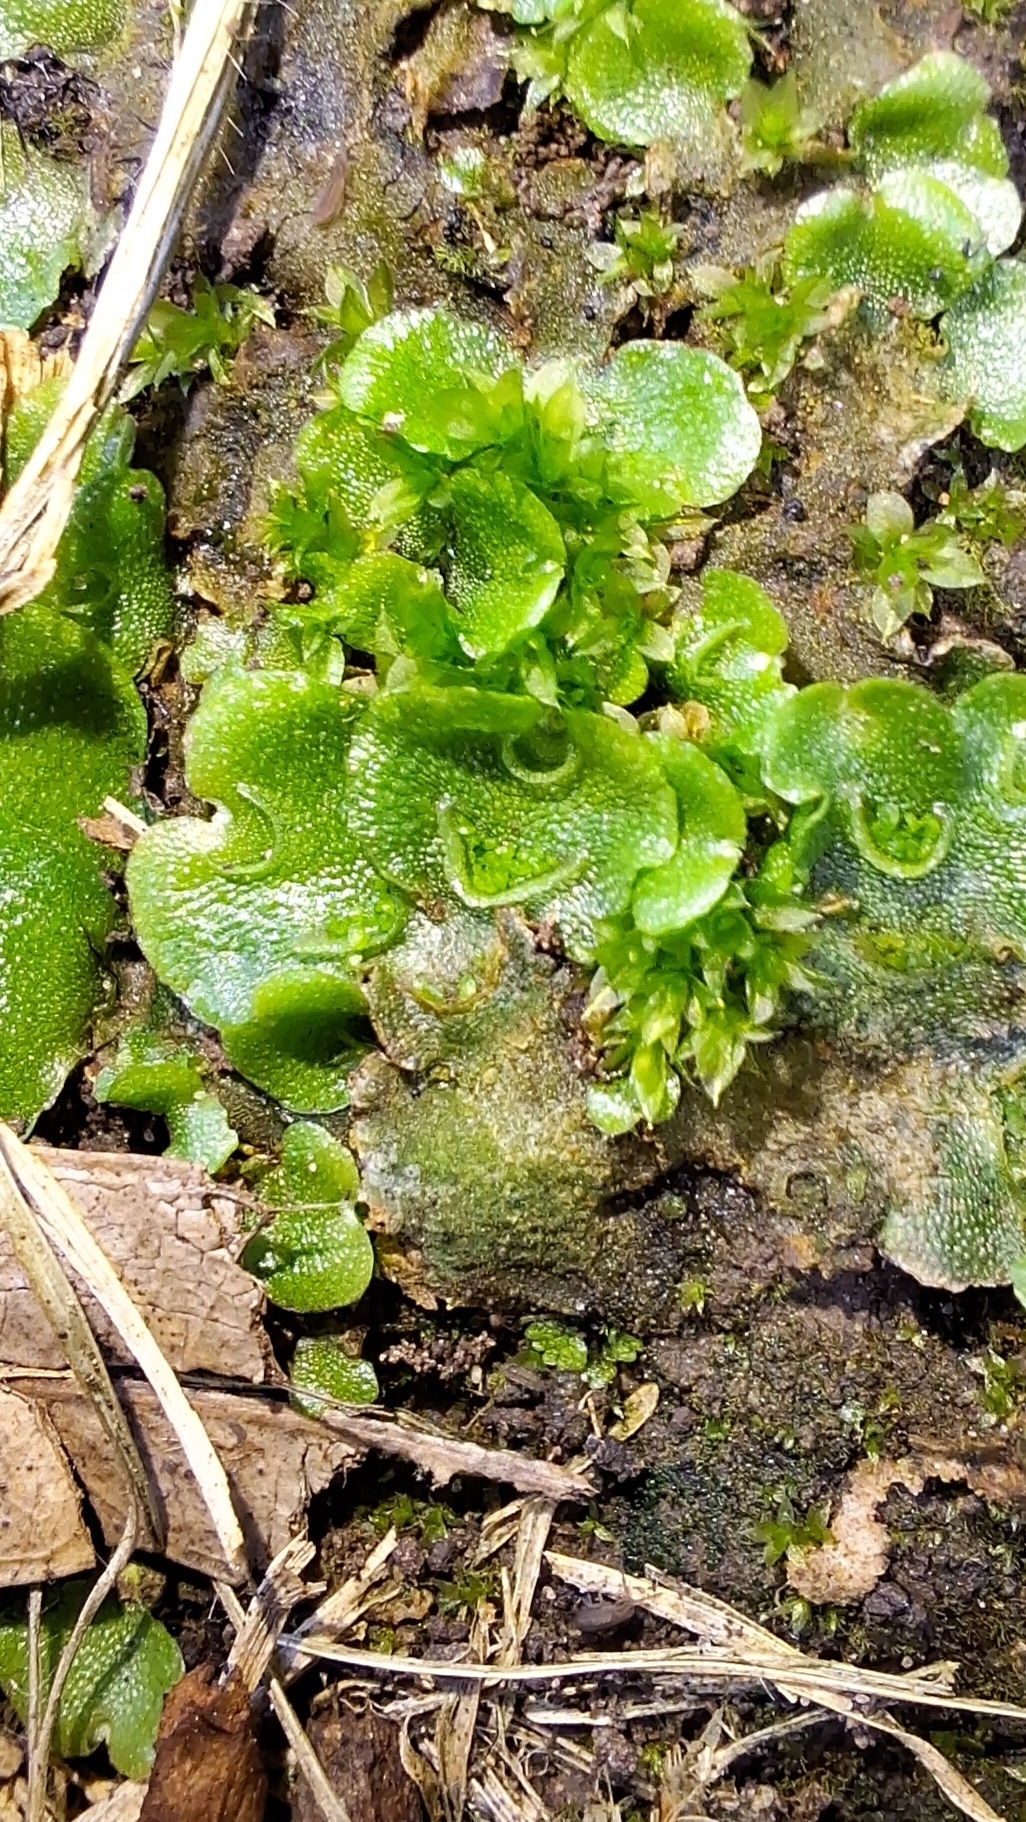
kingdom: Plantae
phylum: Marchantiophyta
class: Marchantiopsida
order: Lunulariales
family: Lunulariaceae
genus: Lunularia
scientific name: Lunularia cruciata
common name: Crescent-cup liverwort
